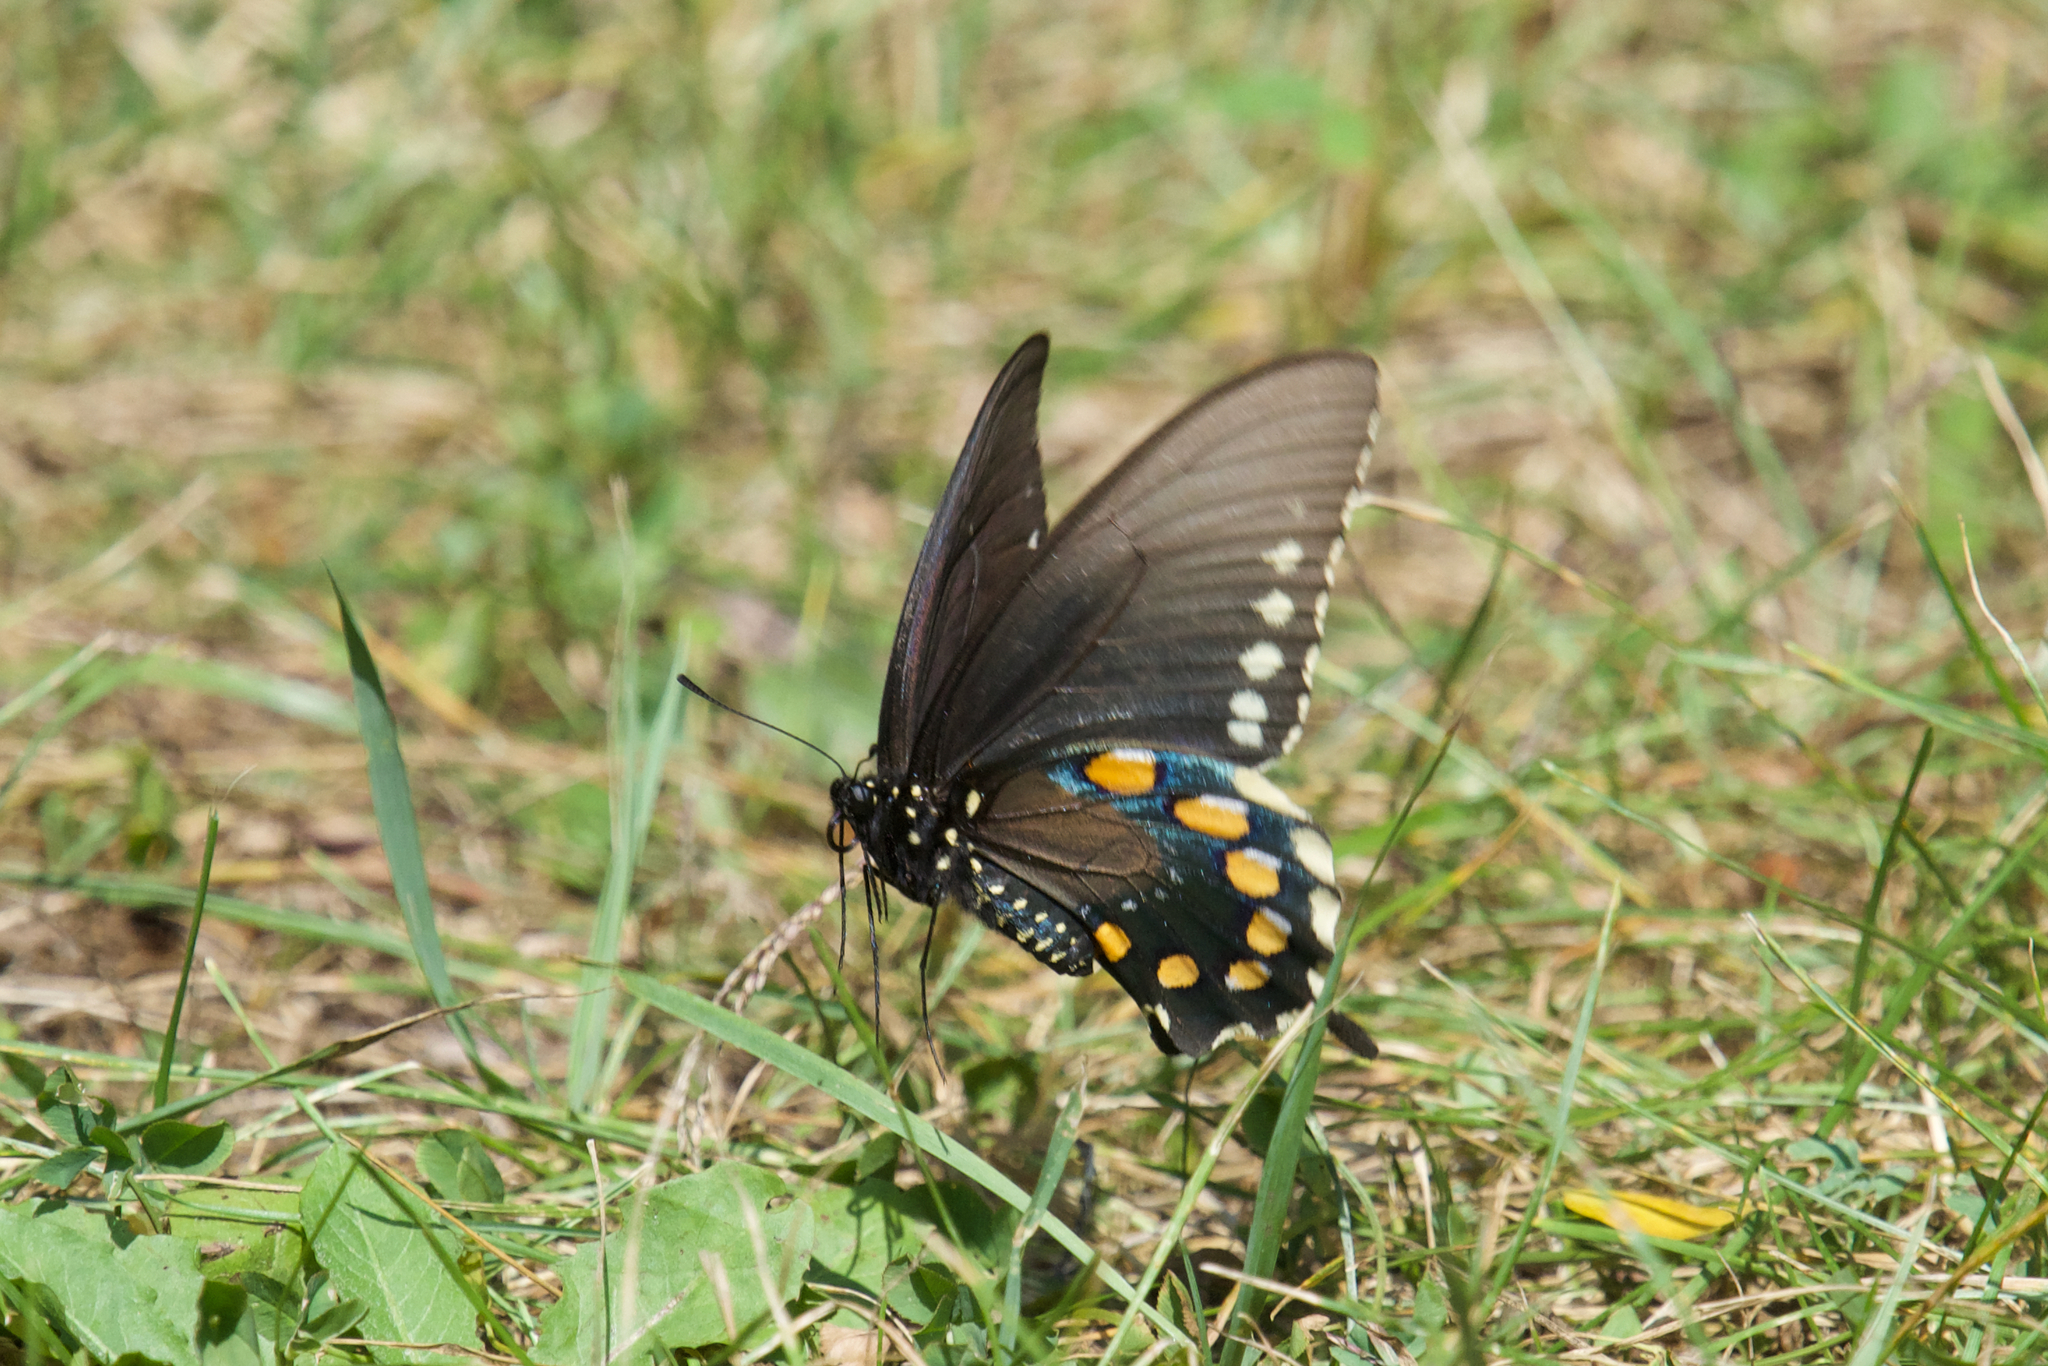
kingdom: Animalia
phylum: Arthropoda
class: Insecta
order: Lepidoptera
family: Papilionidae
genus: Battus
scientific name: Battus philenor
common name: Pipevine swallowtail
